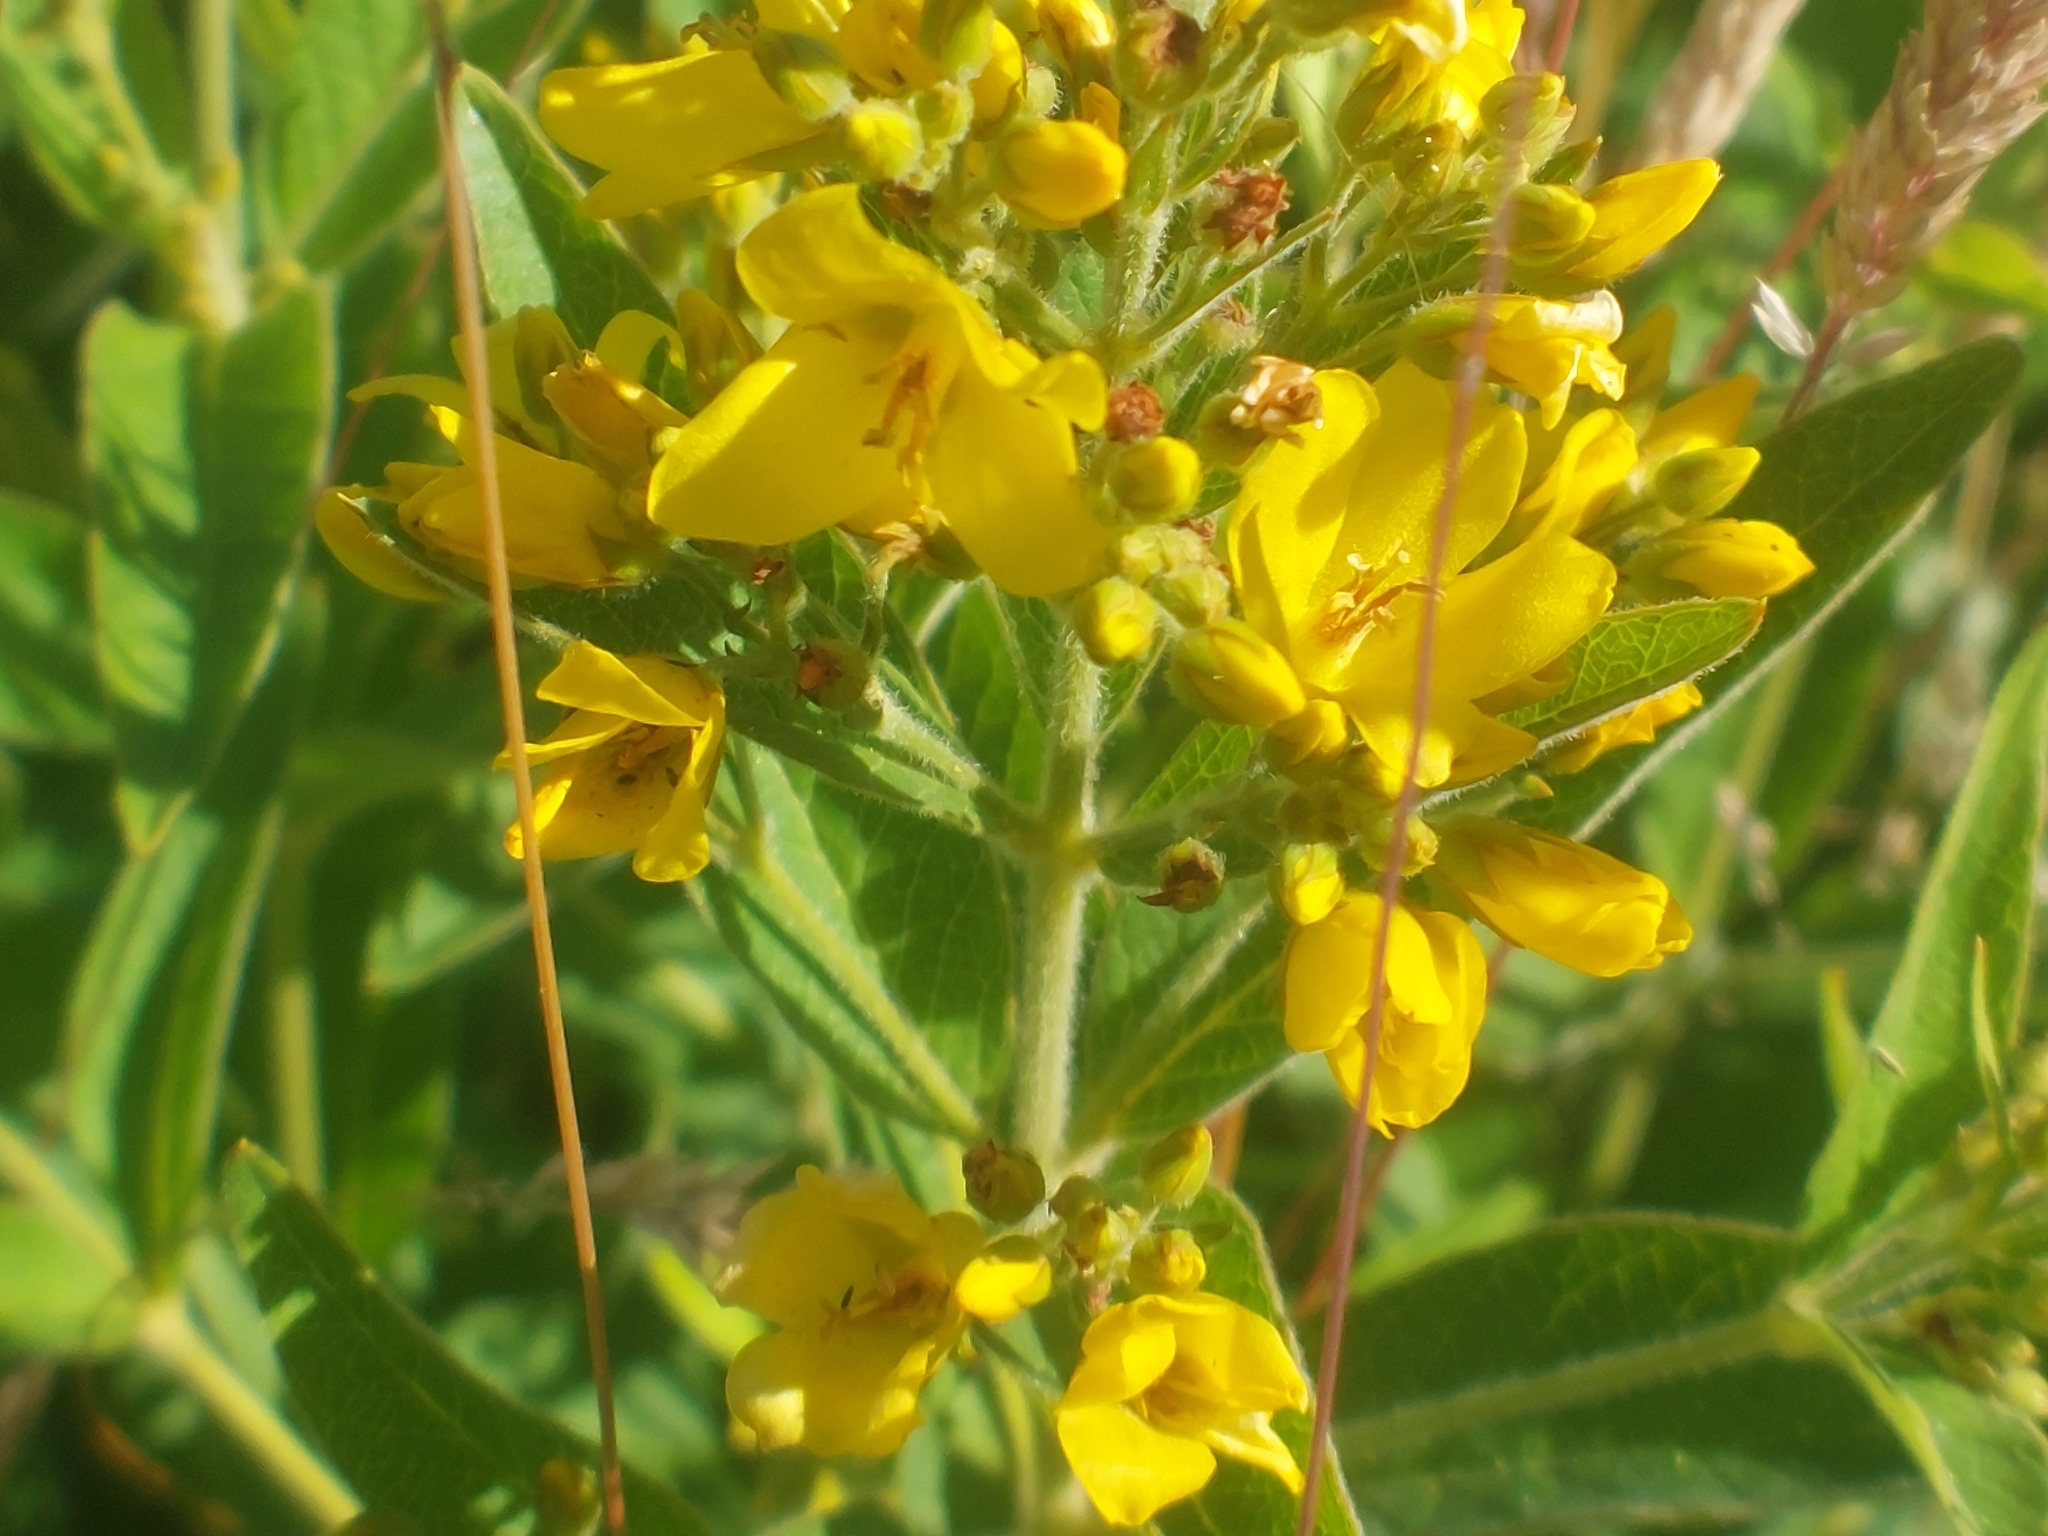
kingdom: Plantae
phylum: Tracheophyta
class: Magnoliopsida
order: Ericales
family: Primulaceae
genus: Lysimachia
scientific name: Lysimachia vulgaris
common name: Yellow loosestrife
